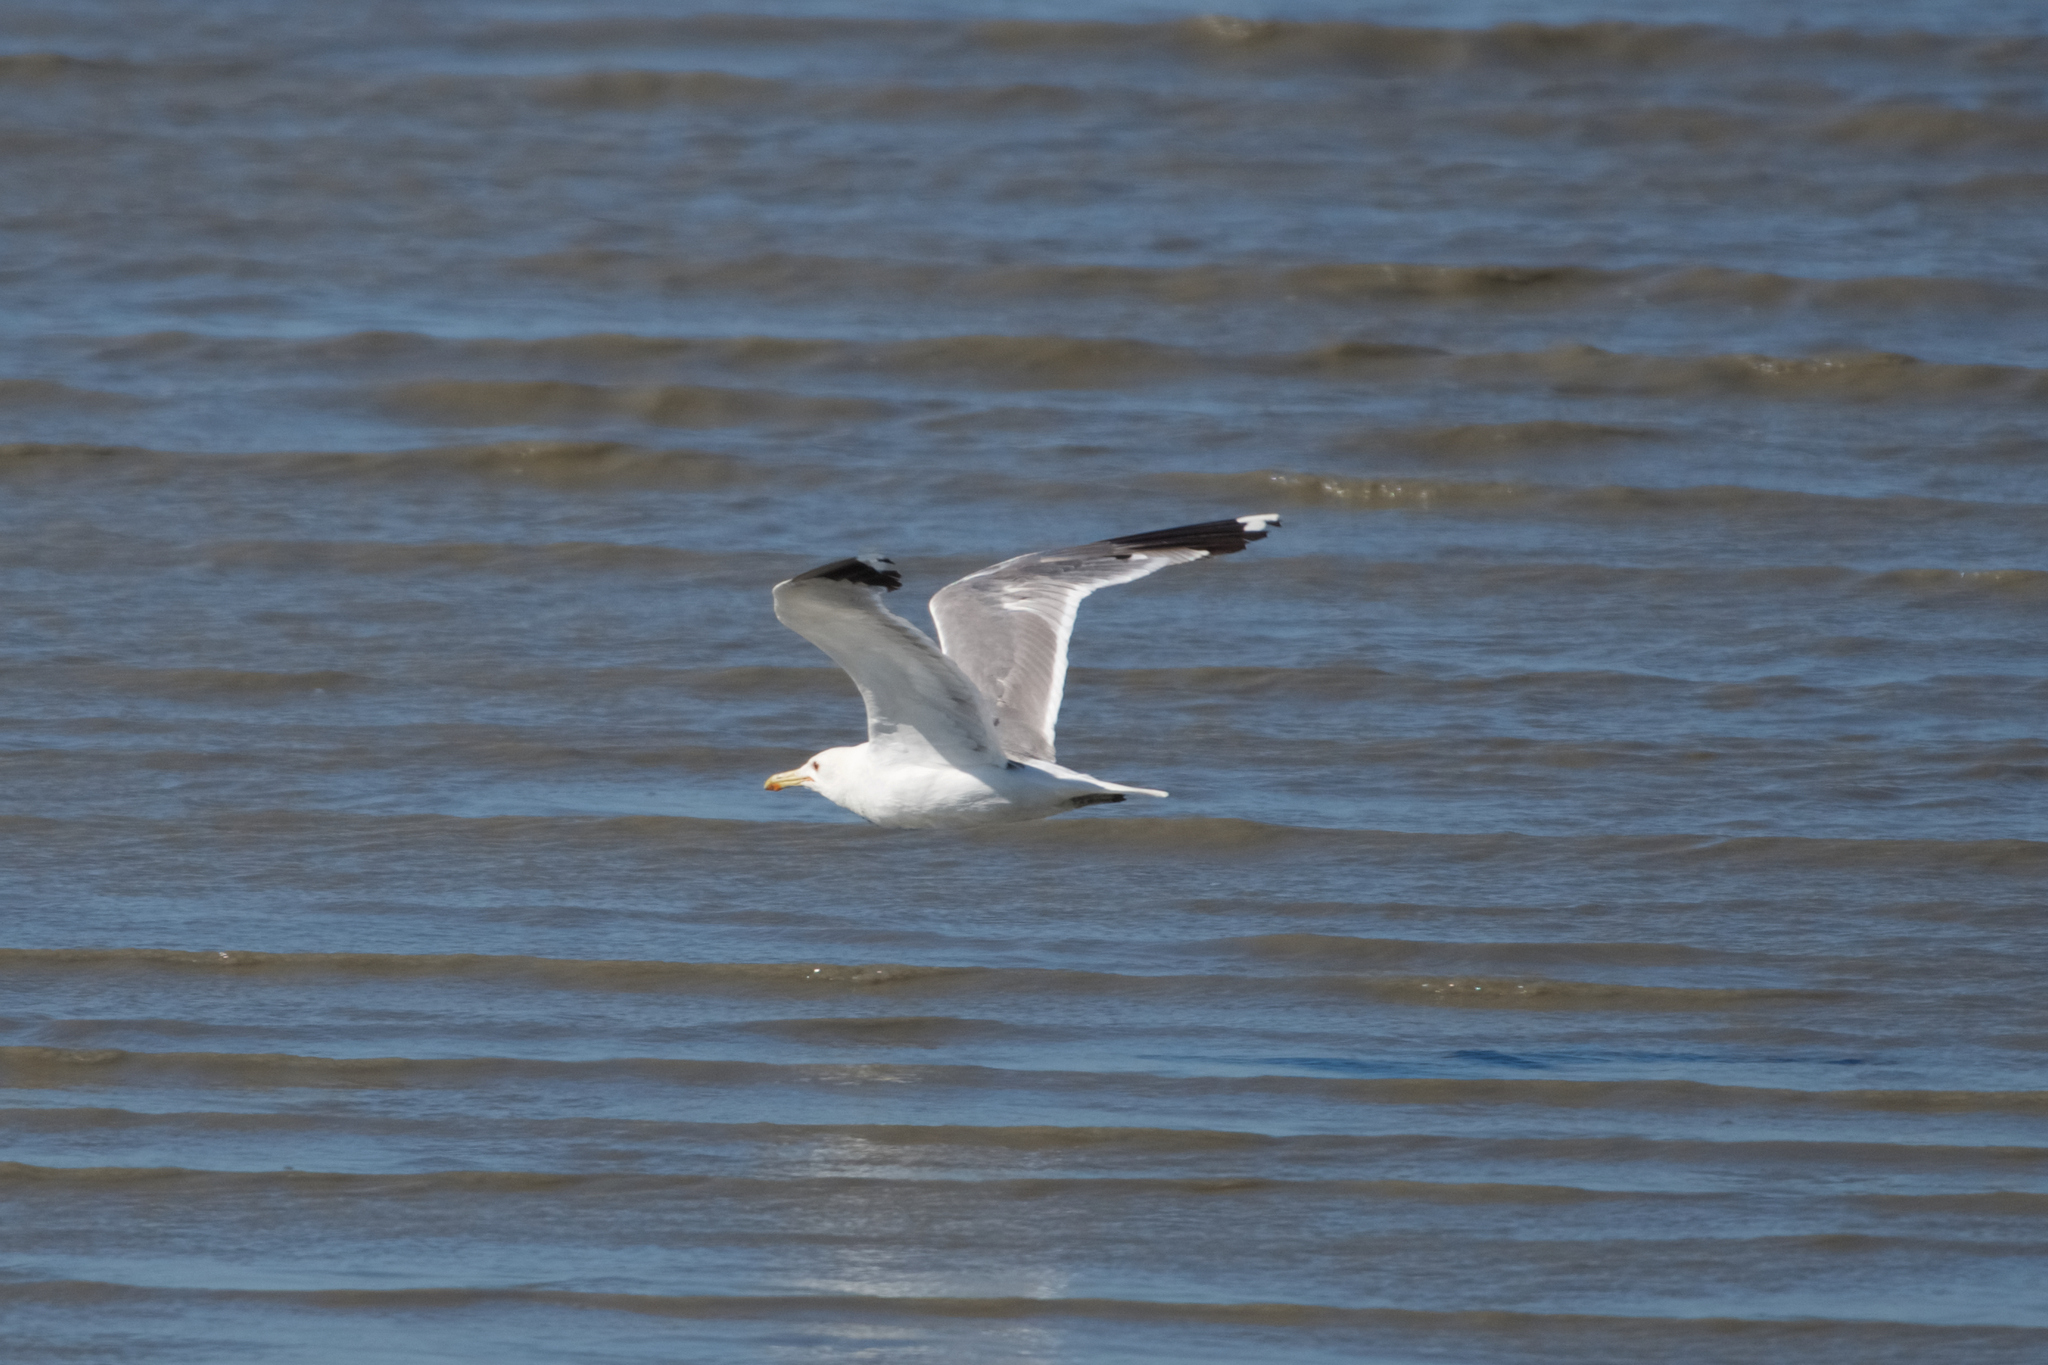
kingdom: Animalia
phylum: Chordata
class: Aves
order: Charadriiformes
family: Laridae
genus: Larus
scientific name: Larus californicus
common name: California gull
